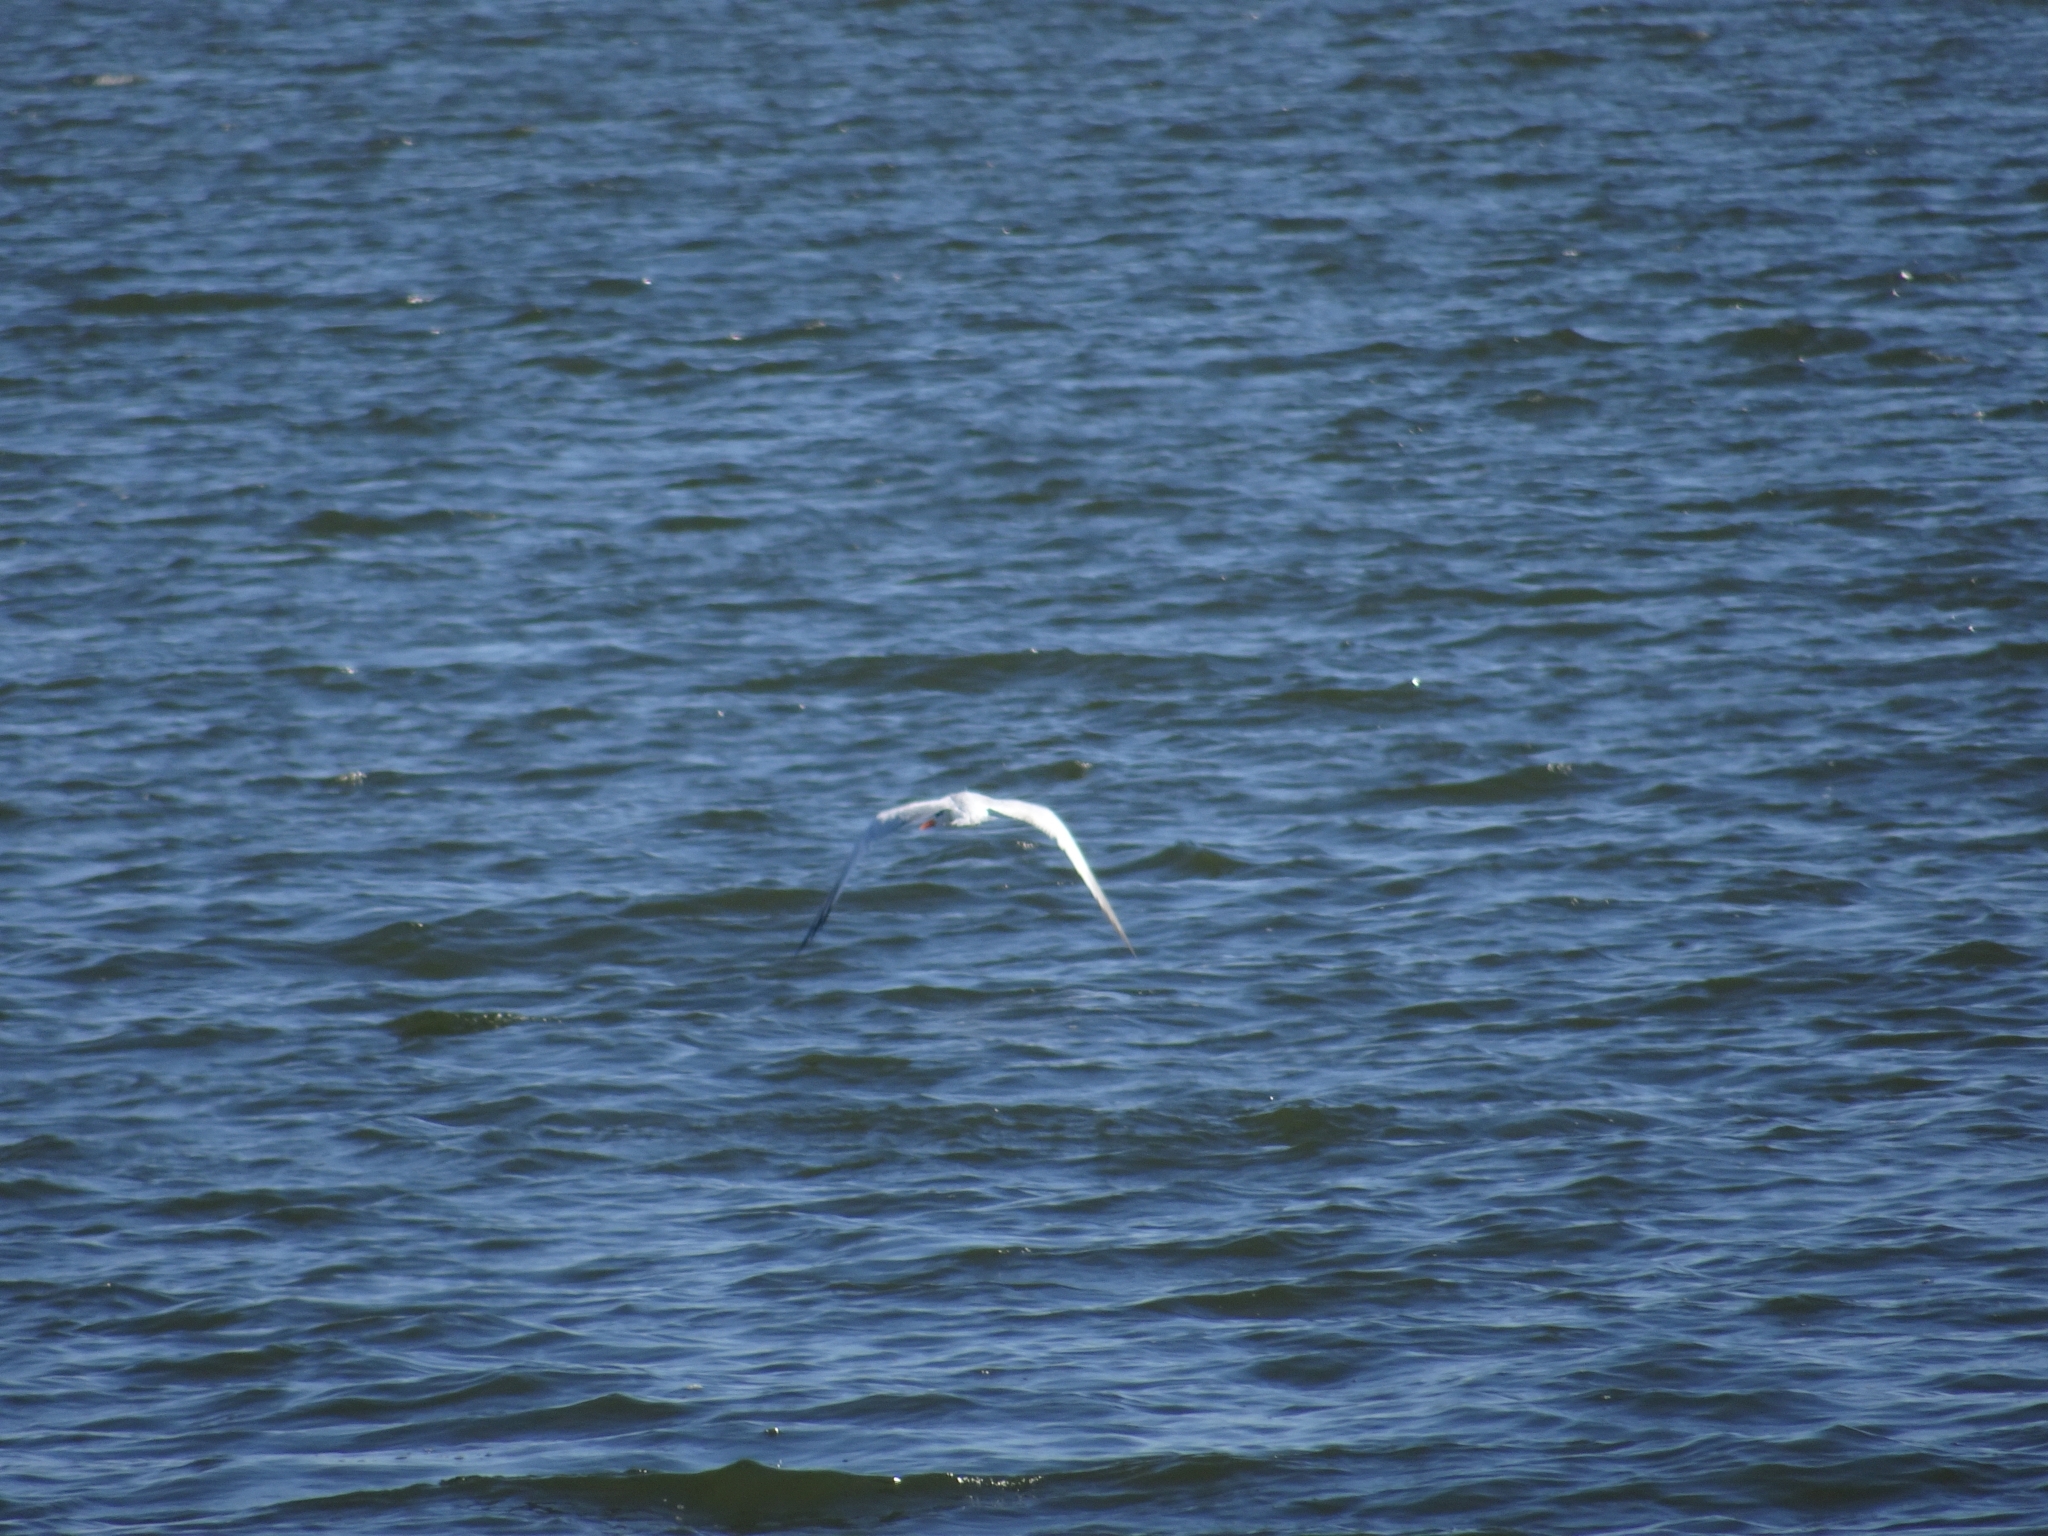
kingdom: Animalia
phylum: Chordata
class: Aves
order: Charadriiformes
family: Laridae
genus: Thalasseus
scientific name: Thalasseus maximus
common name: Royal tern
